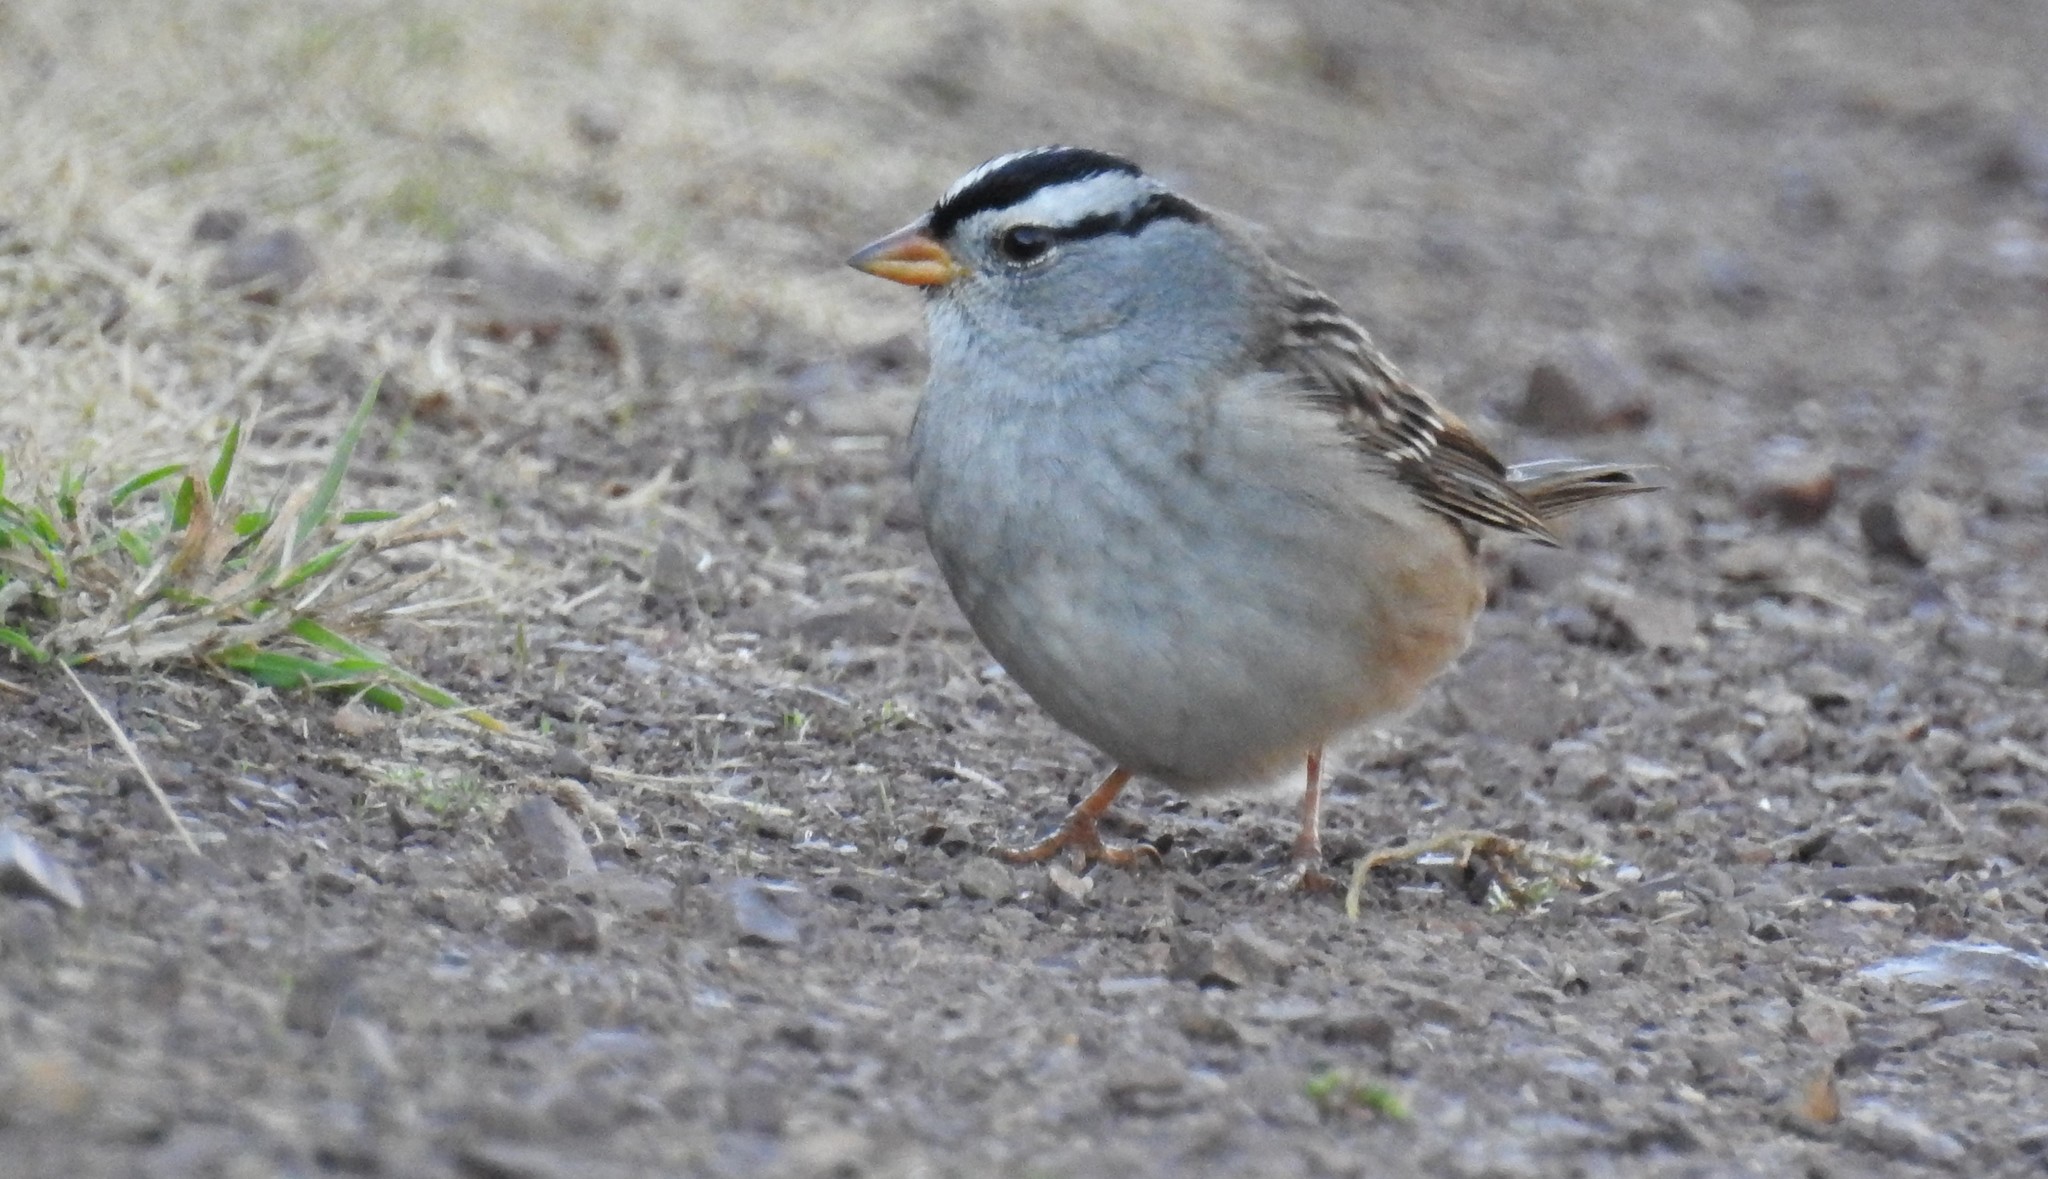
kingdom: Animalia
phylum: Chordata
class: Aves
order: Passeriformes
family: Passerellidae
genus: Zonotrichia
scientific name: Zonotrichia leucophrys
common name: White-crowned sparrow
